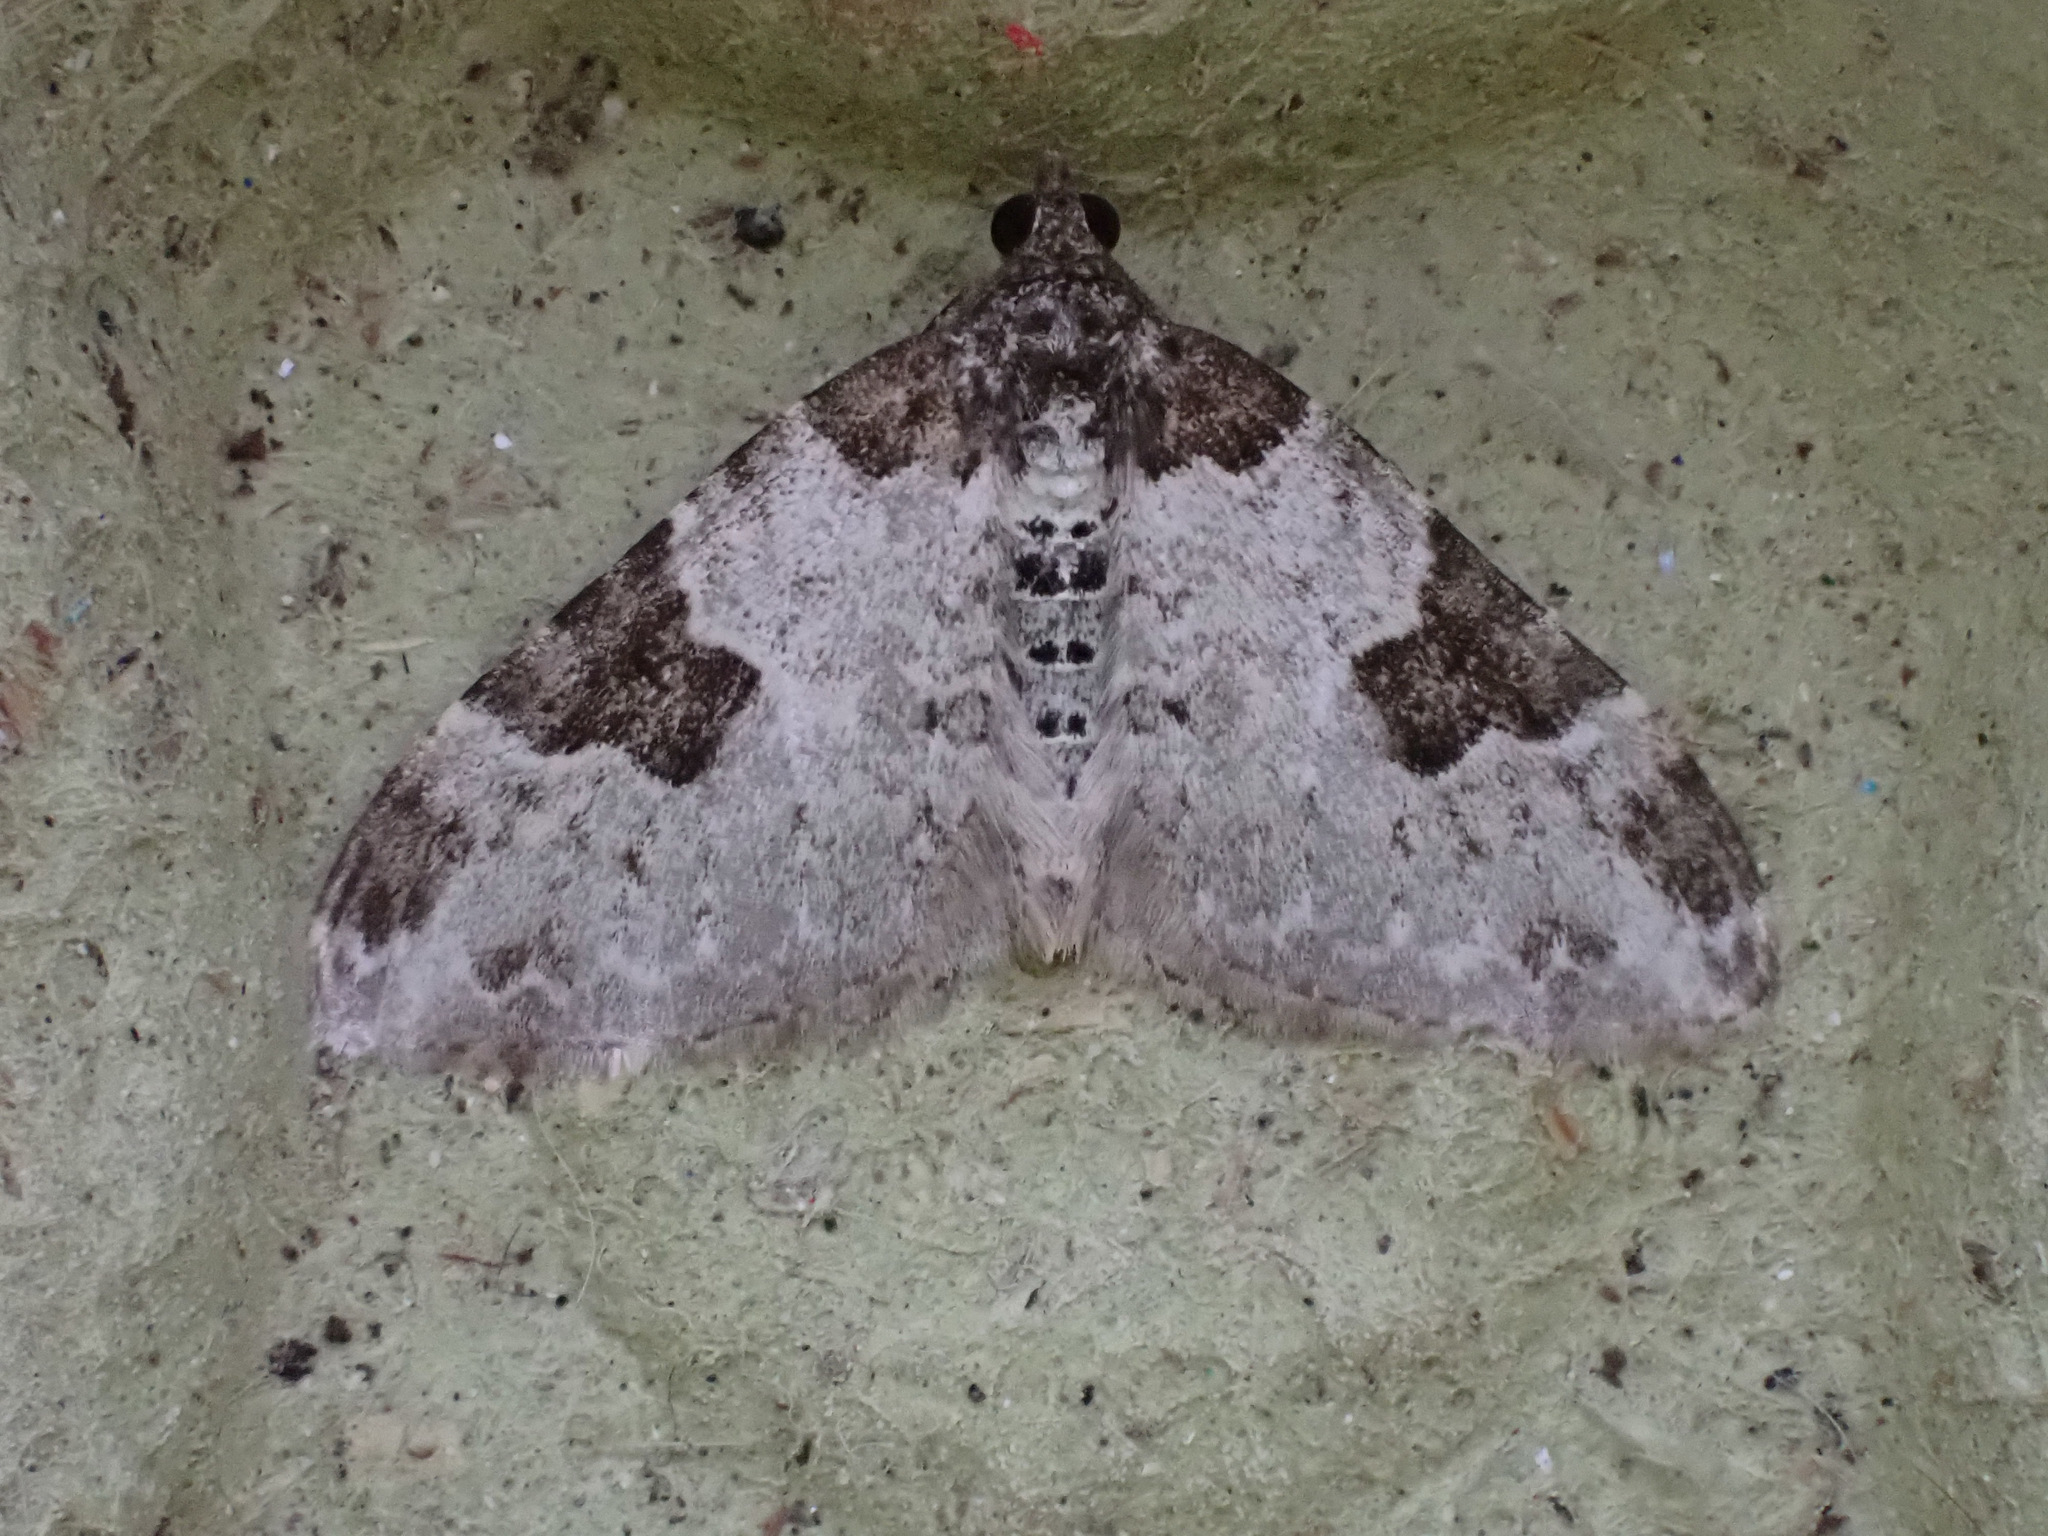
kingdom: Animalia
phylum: Arthropoda
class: Insecta
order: Lepidoptera
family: Geometridae
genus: Xanthorhoe
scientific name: Xanthorhoe fluctuata
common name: Garden carpet
